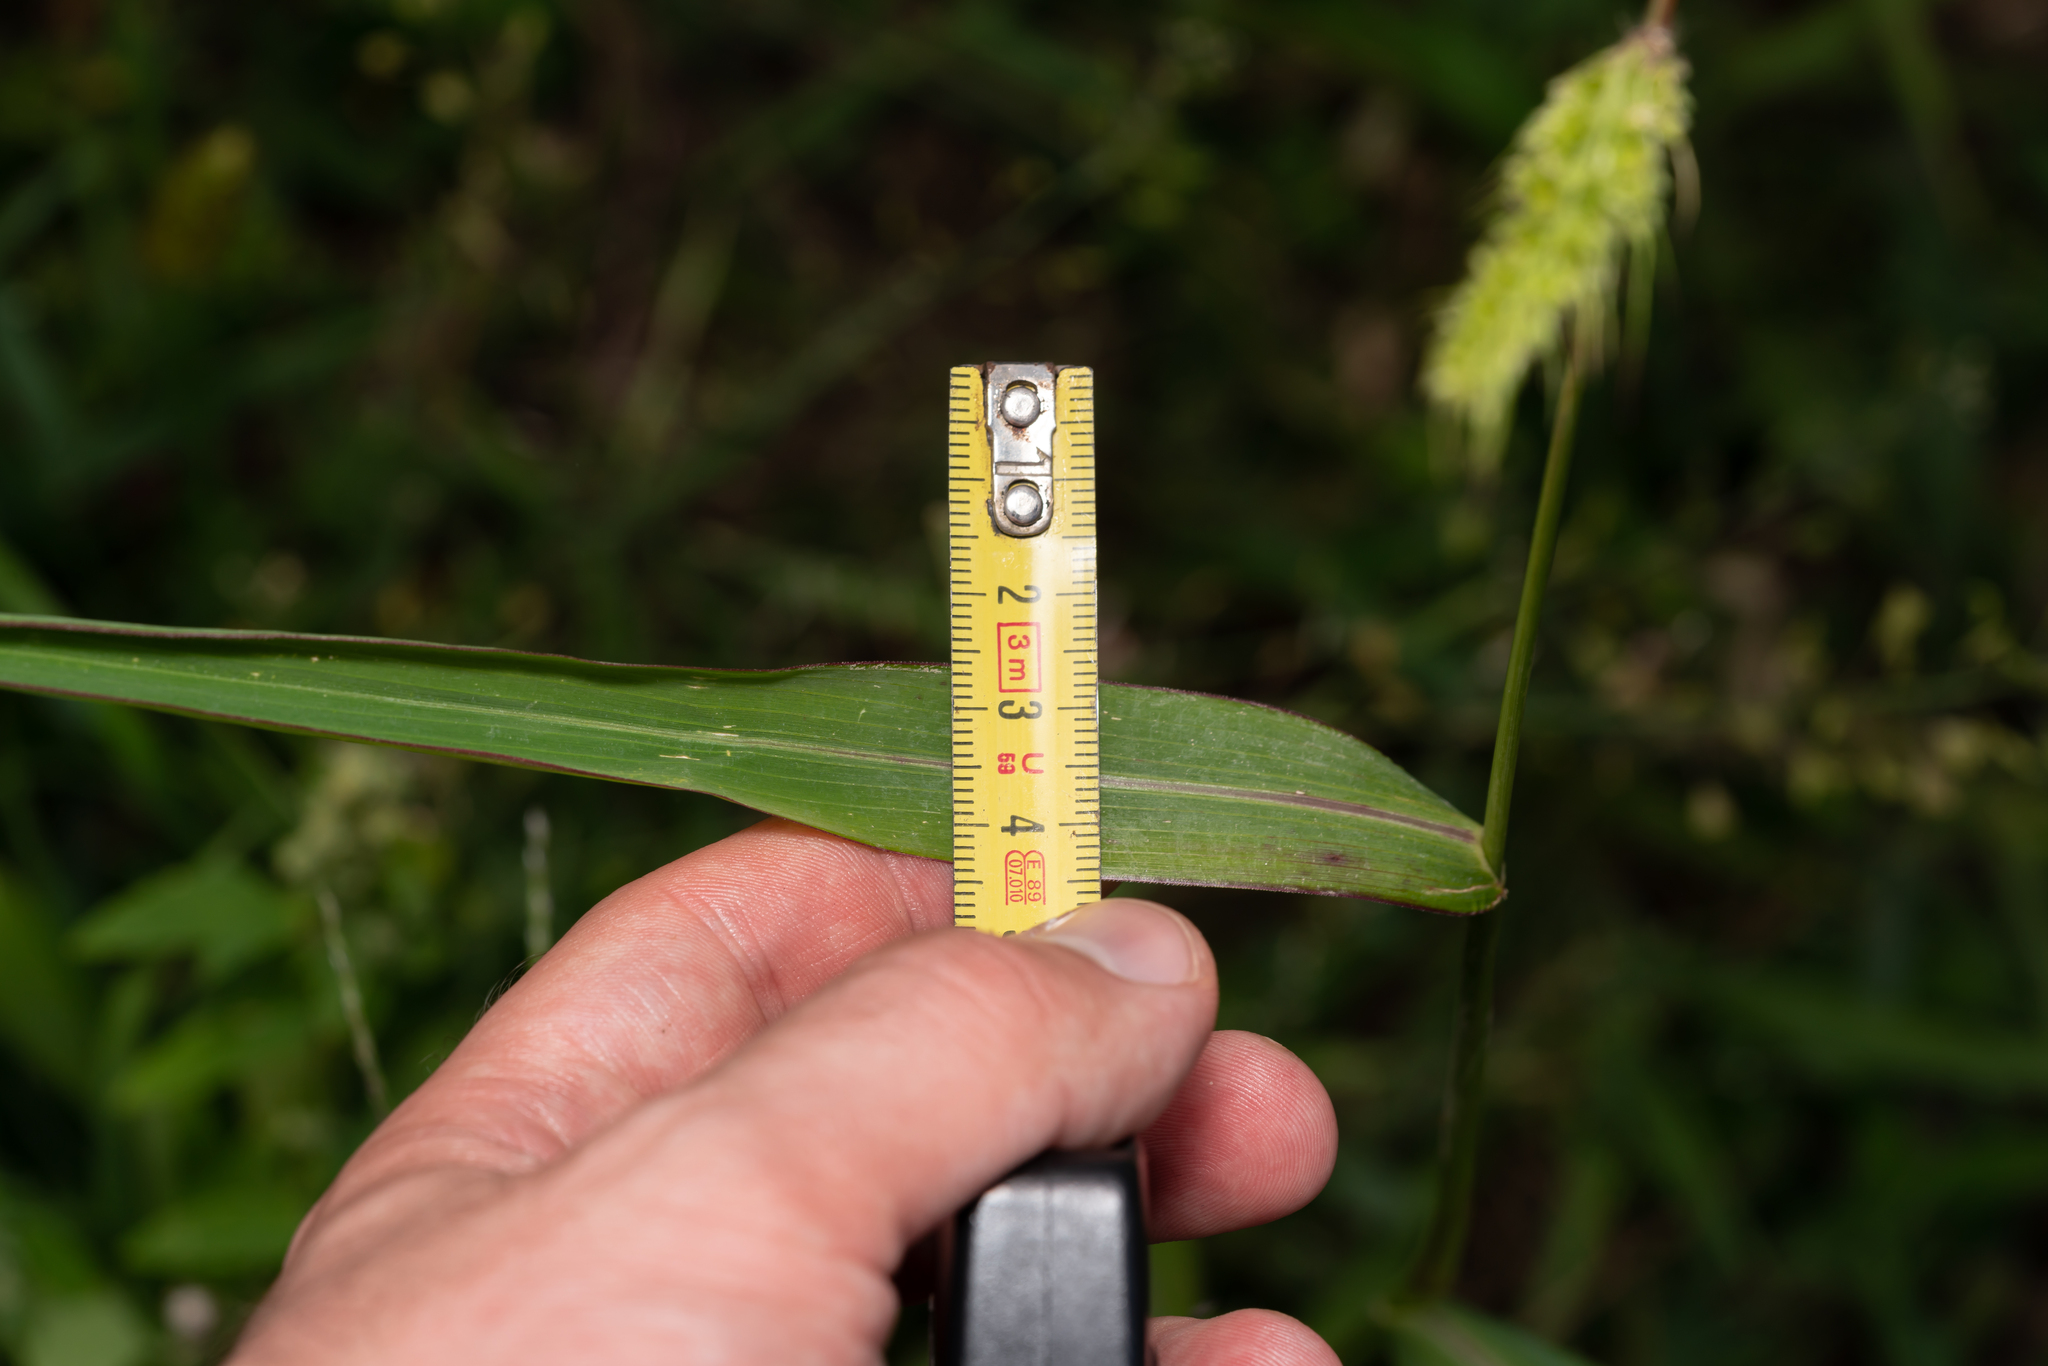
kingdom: Plantae
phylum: Tracheophyta
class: Liliopsida
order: Poales
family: Poaceae
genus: Echinochloa
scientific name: Echinochloa crus-galli
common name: Cockspur
